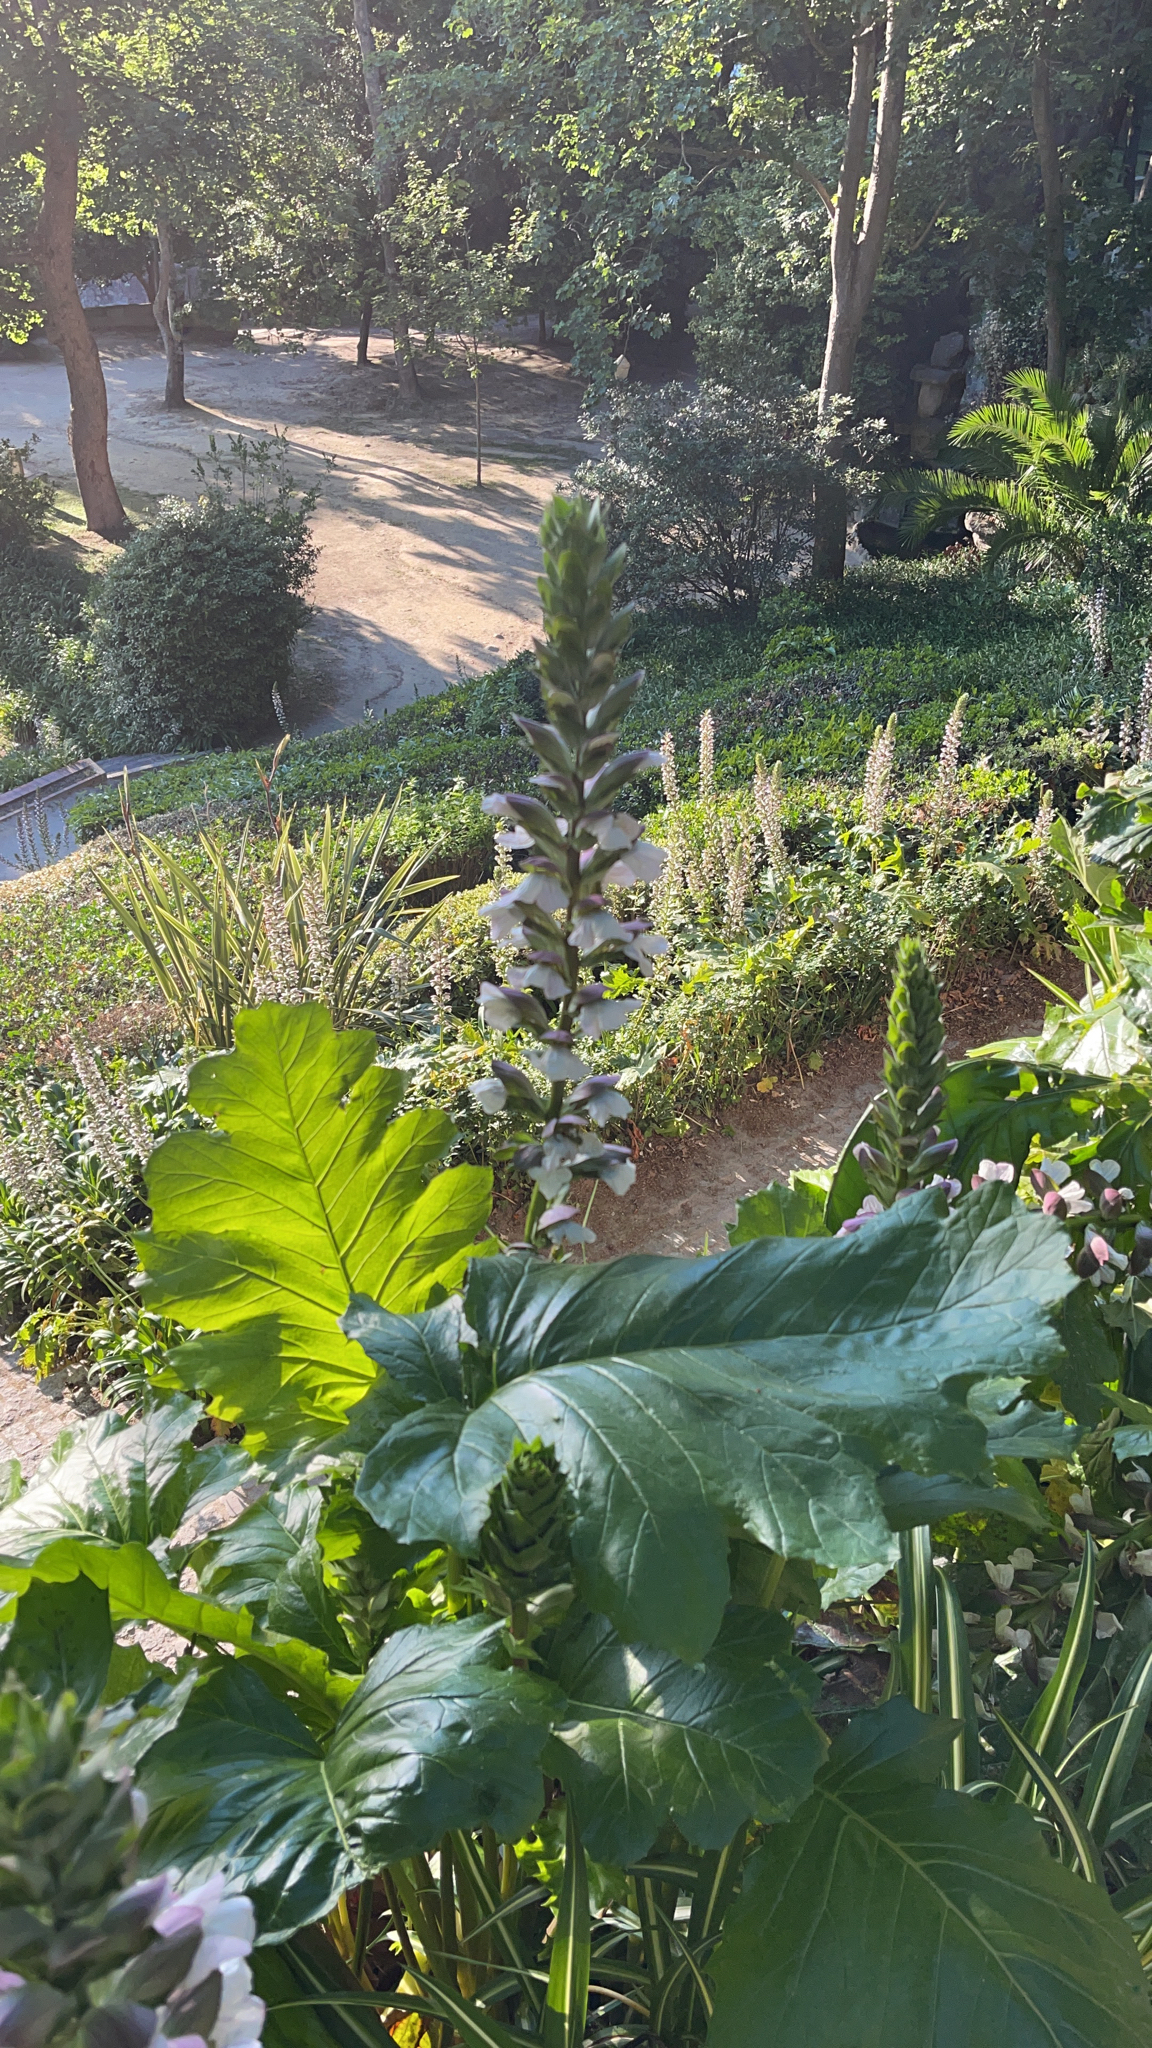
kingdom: Plantae
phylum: Tracheophyta
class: Magnoliopsida
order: Lamiales
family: Acanthaceae
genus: Acanthus
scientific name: Acanthus mollis
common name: Bear's-breech
